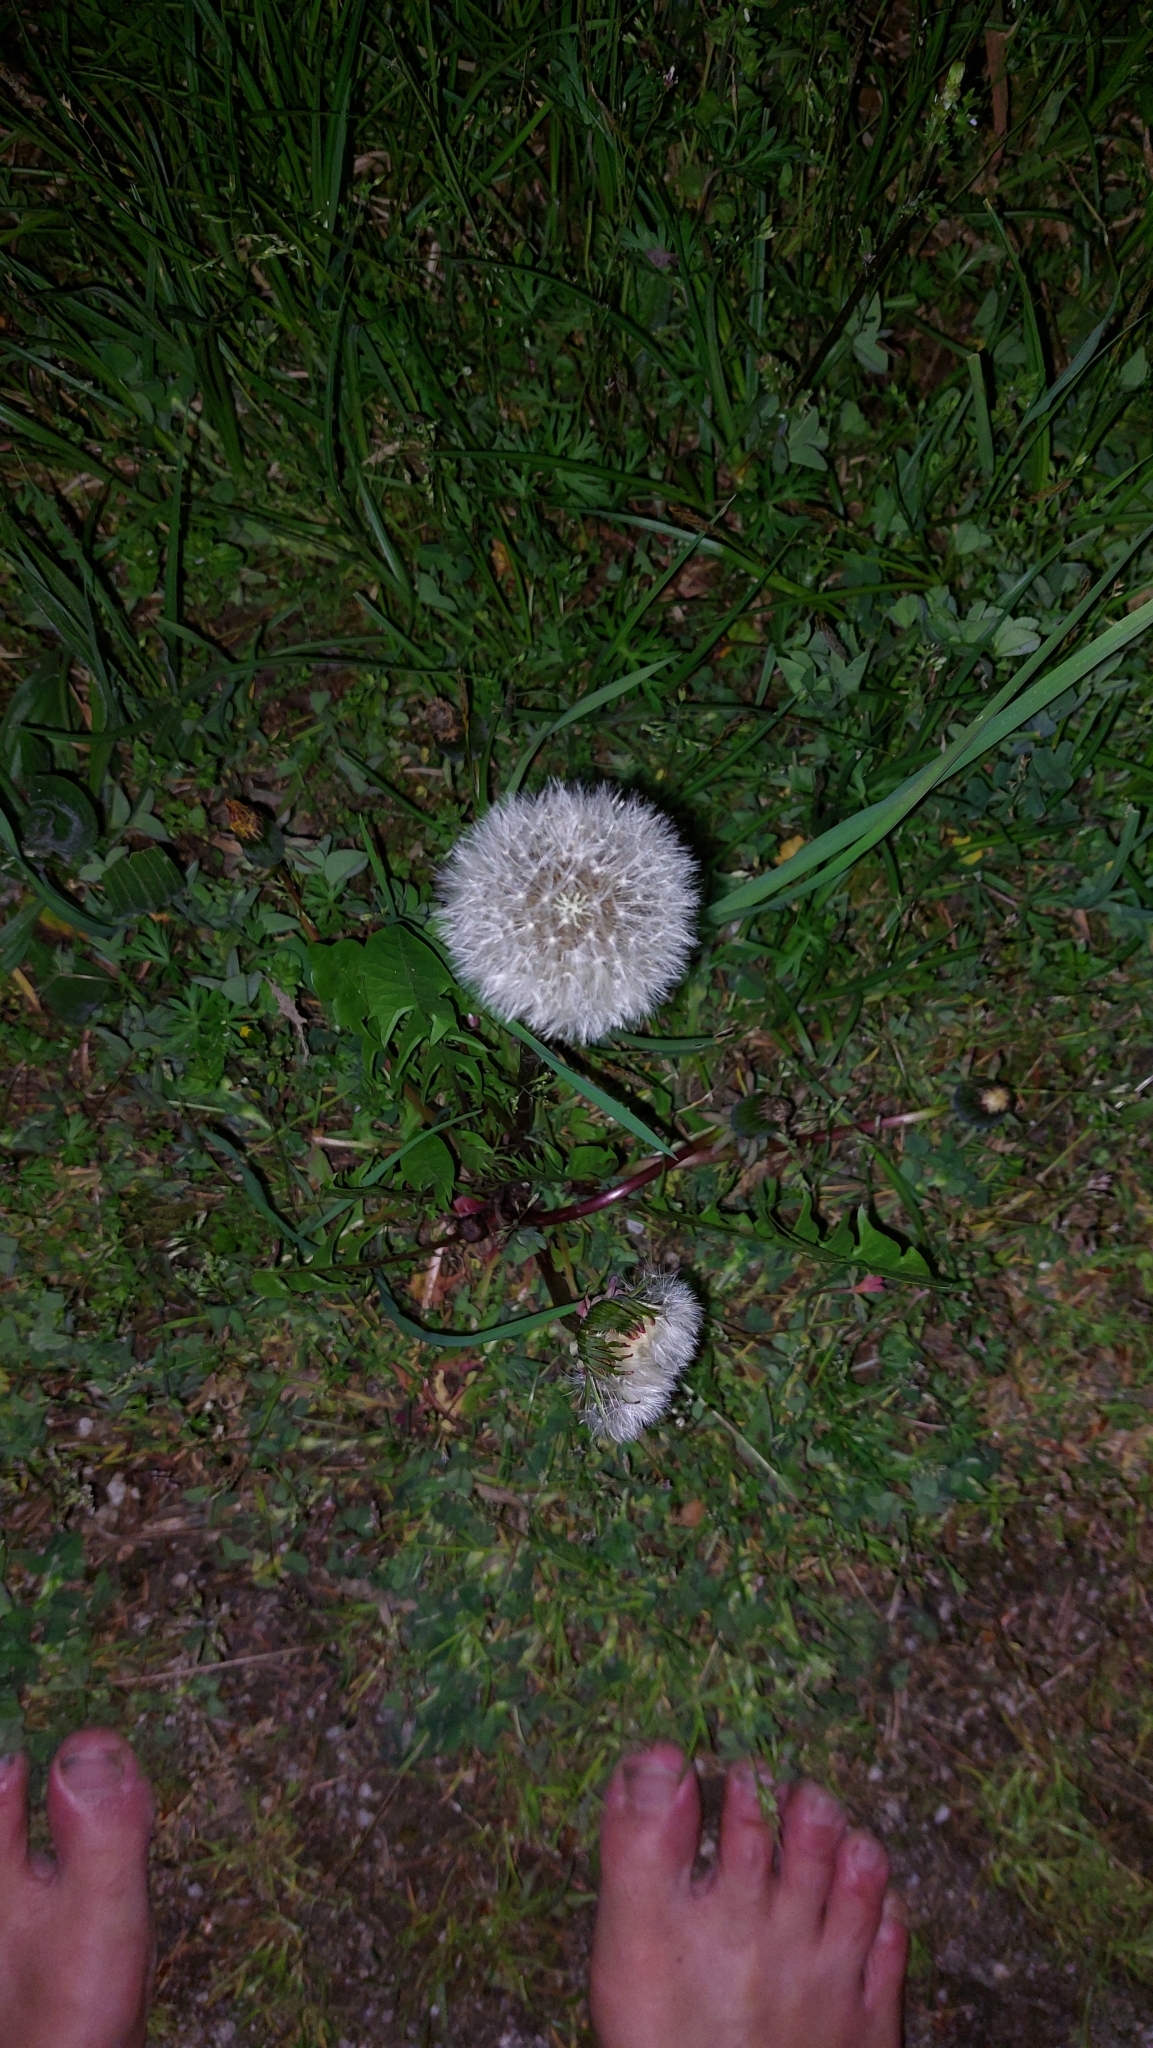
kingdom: Plantae
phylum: Tracheophyta
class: Magnoliopsida
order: Asterales
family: Asteraceae
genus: Taraxacum
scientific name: Taraxacum
